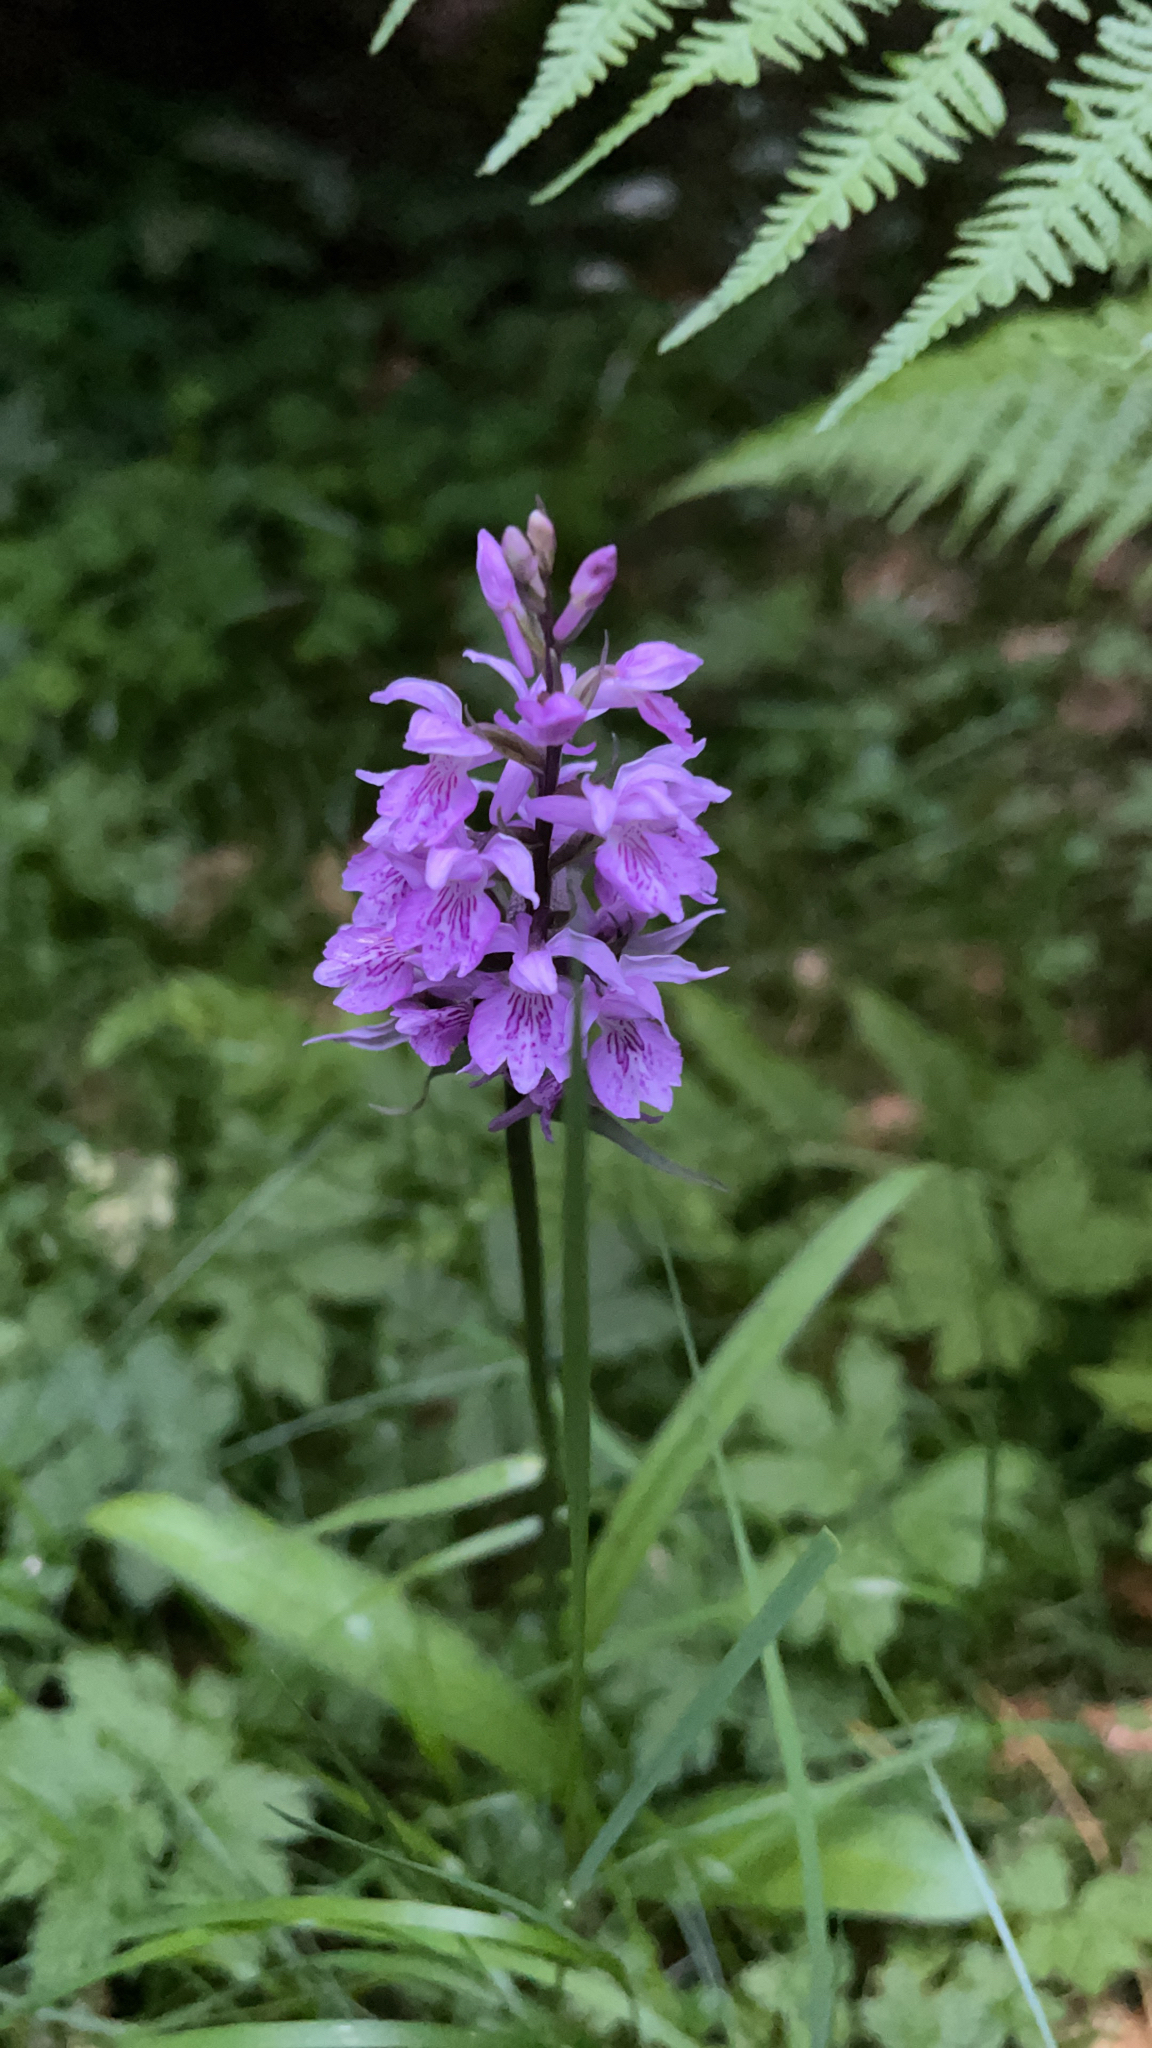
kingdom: Plantae
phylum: Tracheophyta
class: Liliopsida
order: Asparagales
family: Orchidaceae
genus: Dactylorhiza
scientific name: Dactylorhiza maculata
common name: Heath spotted-orchid
